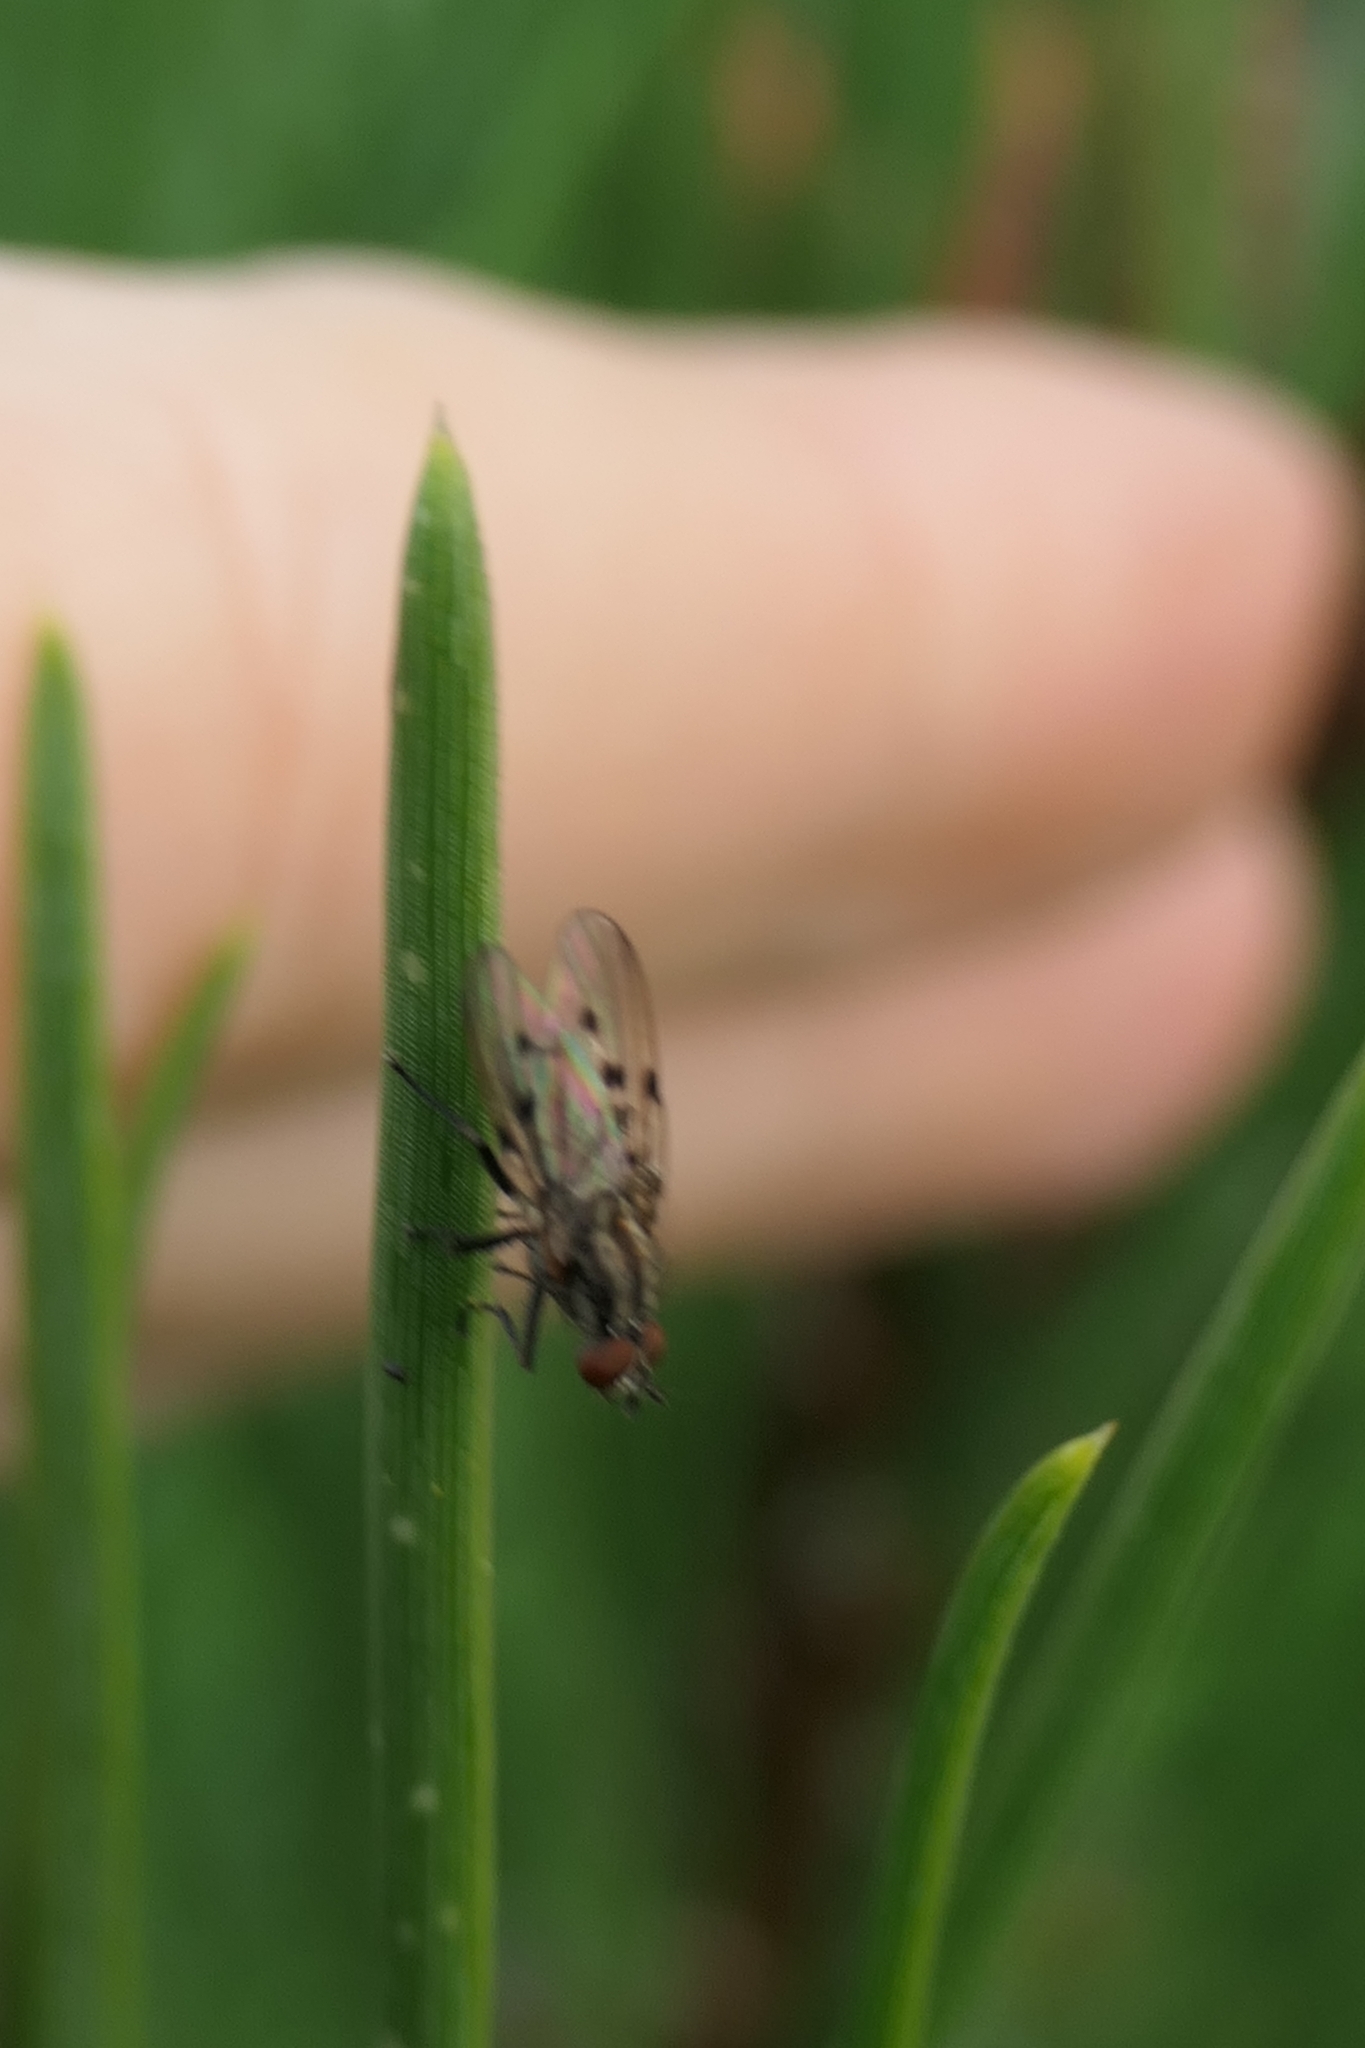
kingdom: Animalia
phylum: Arthropoda
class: Insecta
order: Diptera
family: Anthomyiidae
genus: Anthomyia
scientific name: Anthomyia punctipennis
